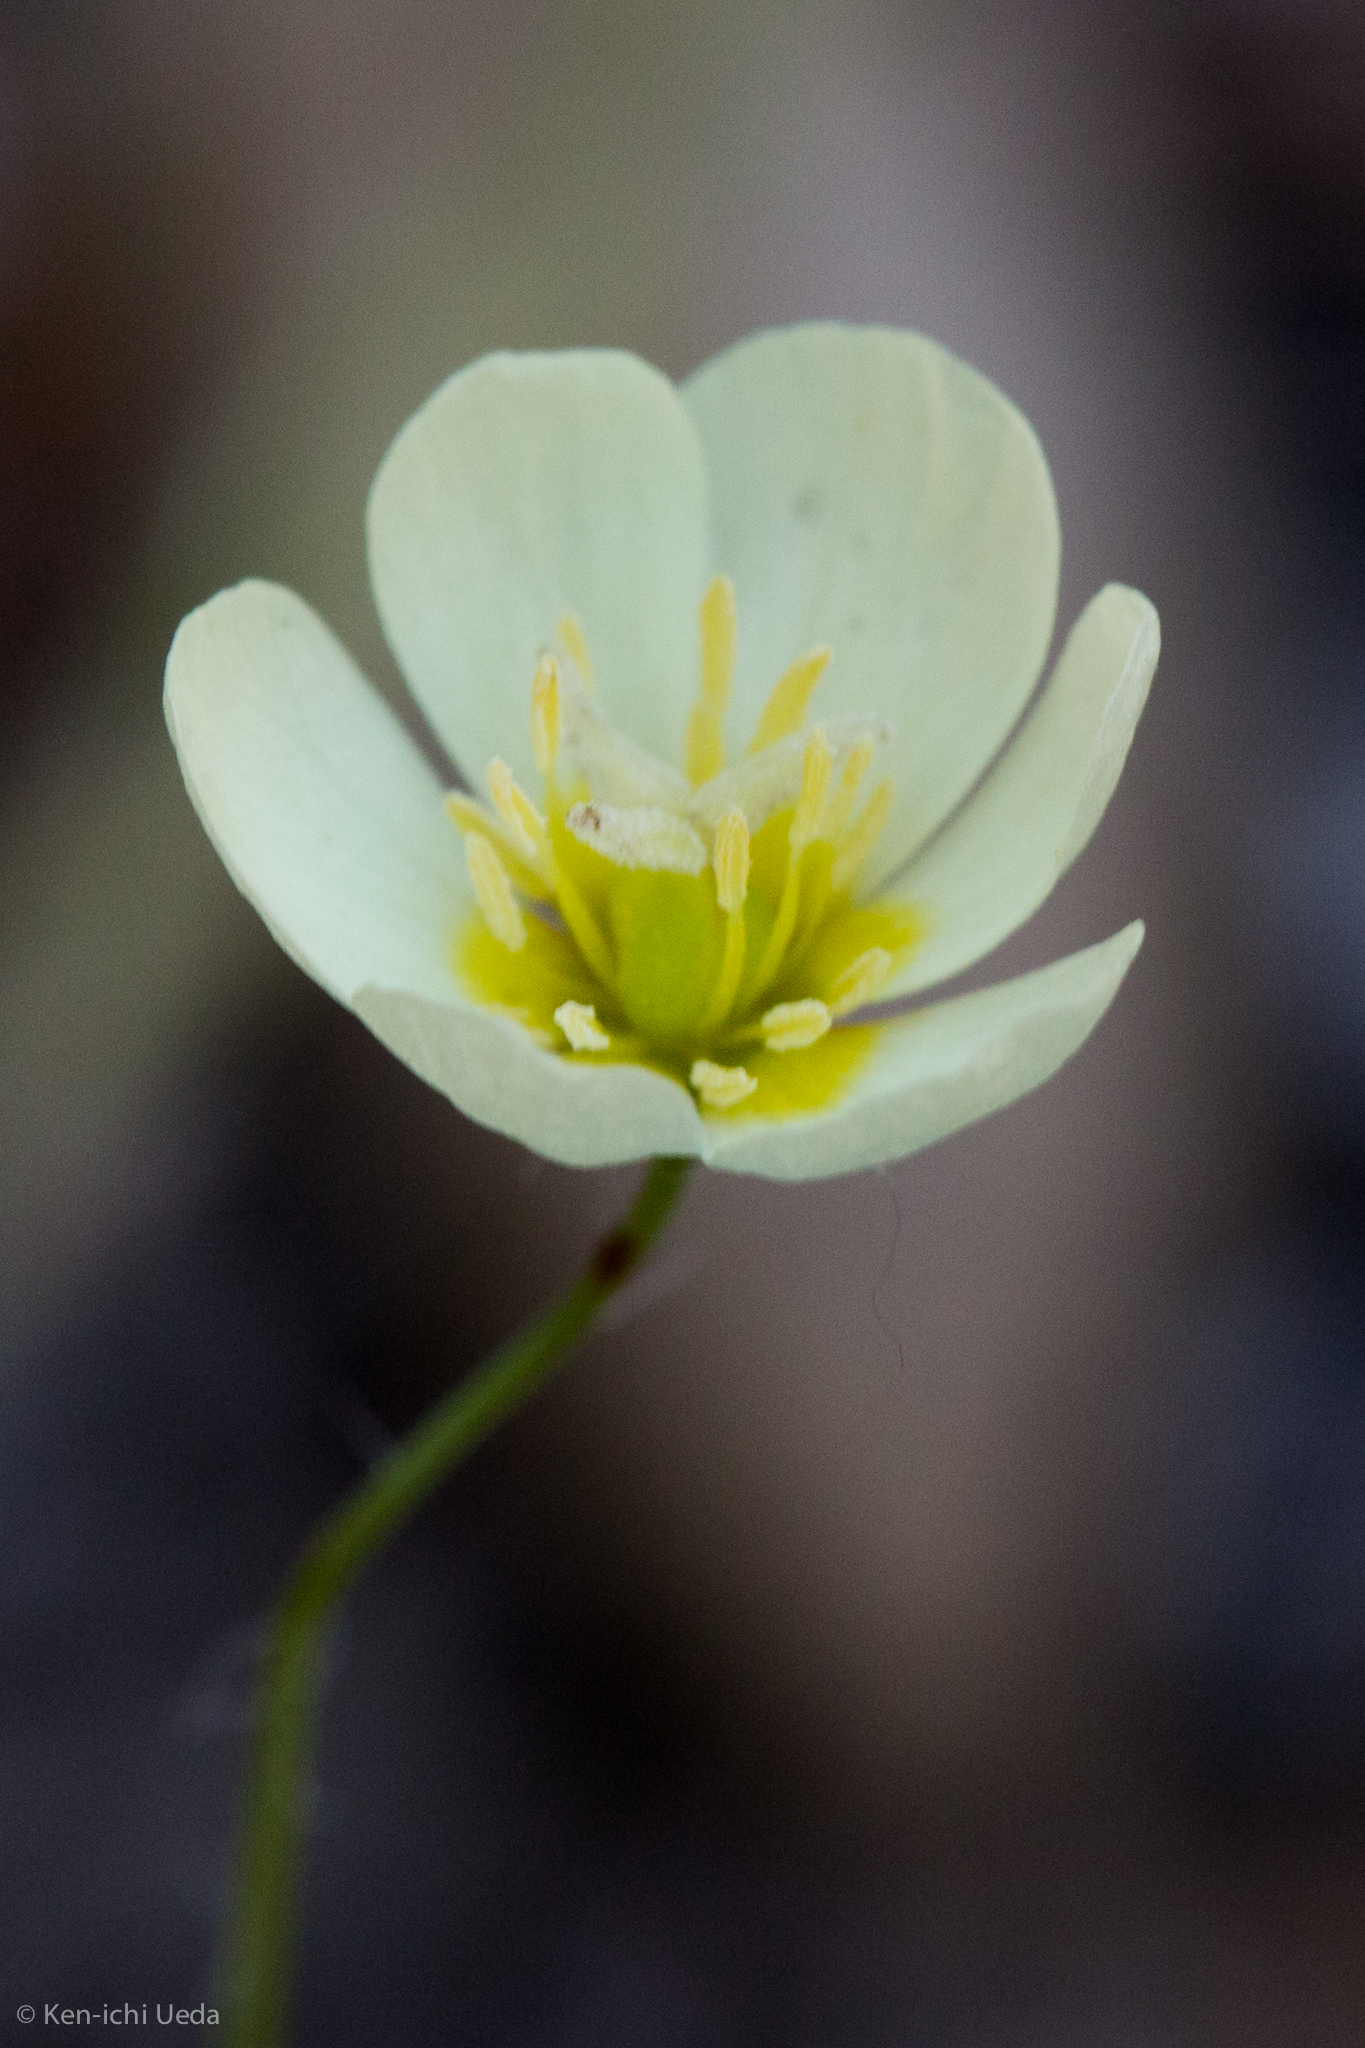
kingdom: Plantae
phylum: Tracheophyta
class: Magnoliopsida
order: Ranunculales
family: Papaveraceae
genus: Platystigma
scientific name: Platystigma lineare
